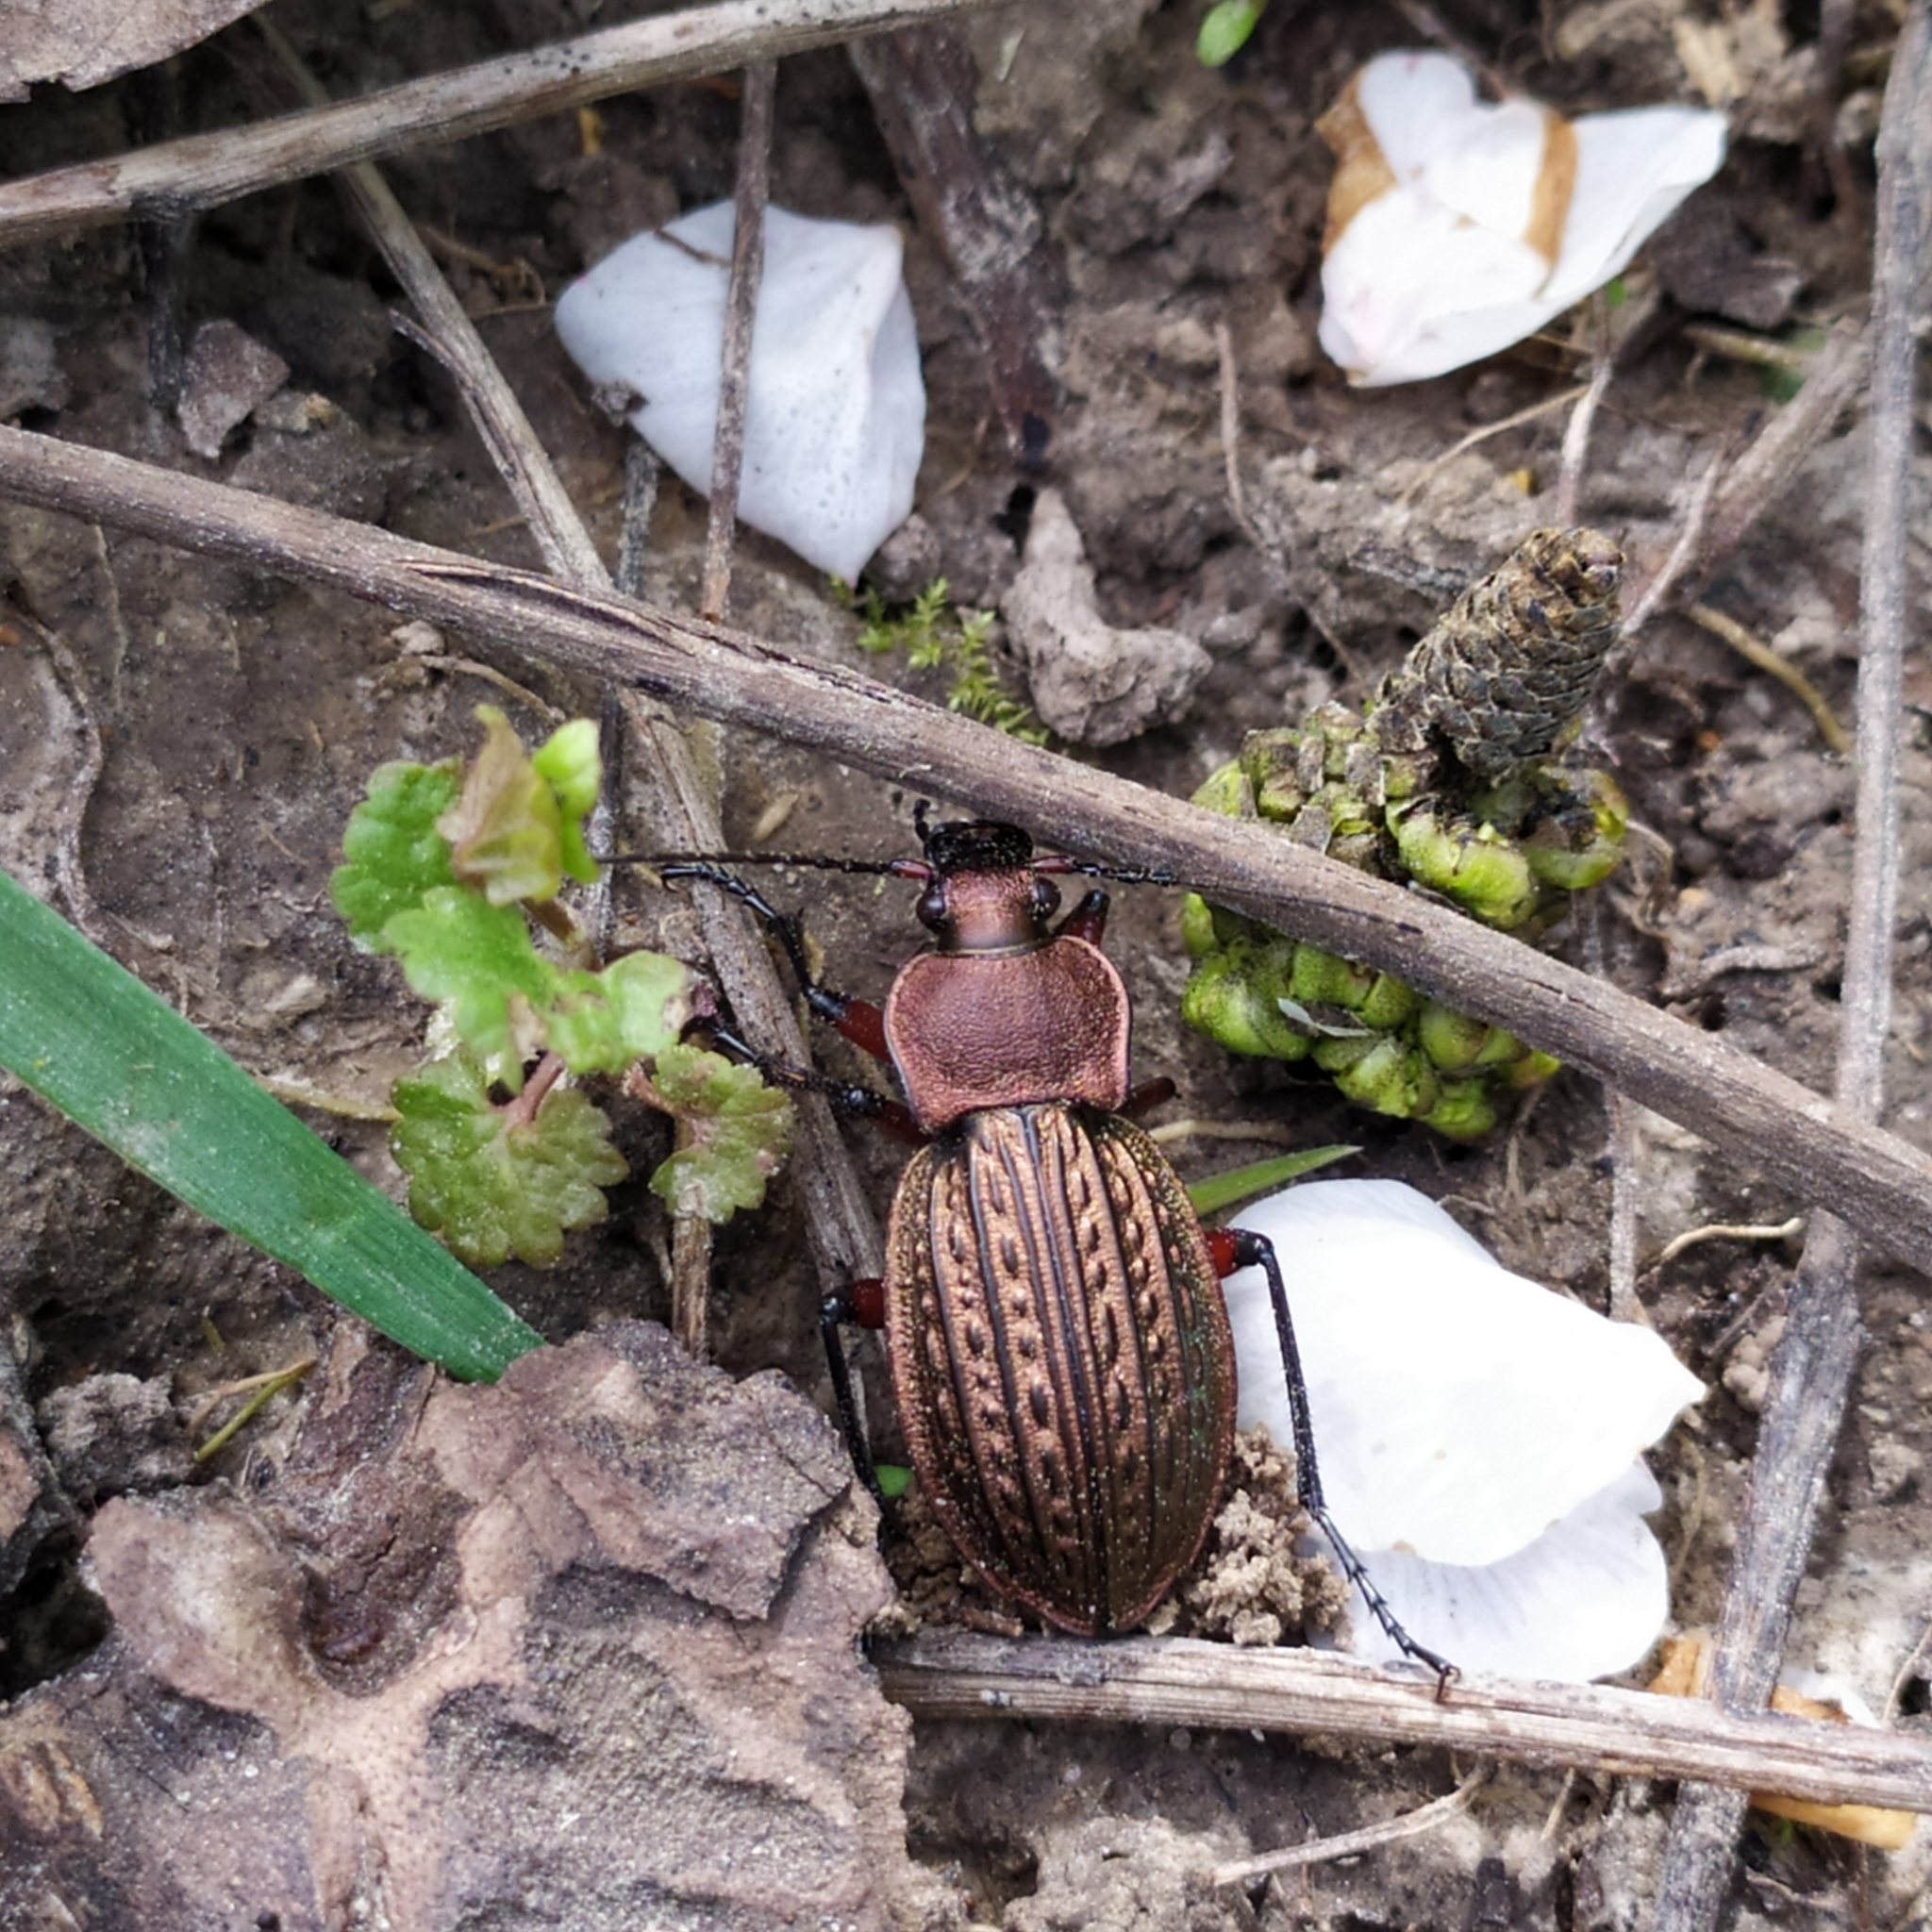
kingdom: Animalia
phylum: Arthropoda
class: Insecta
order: Coleoptera
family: Carabidae
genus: Carabus
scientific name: Carabus cancellatus
